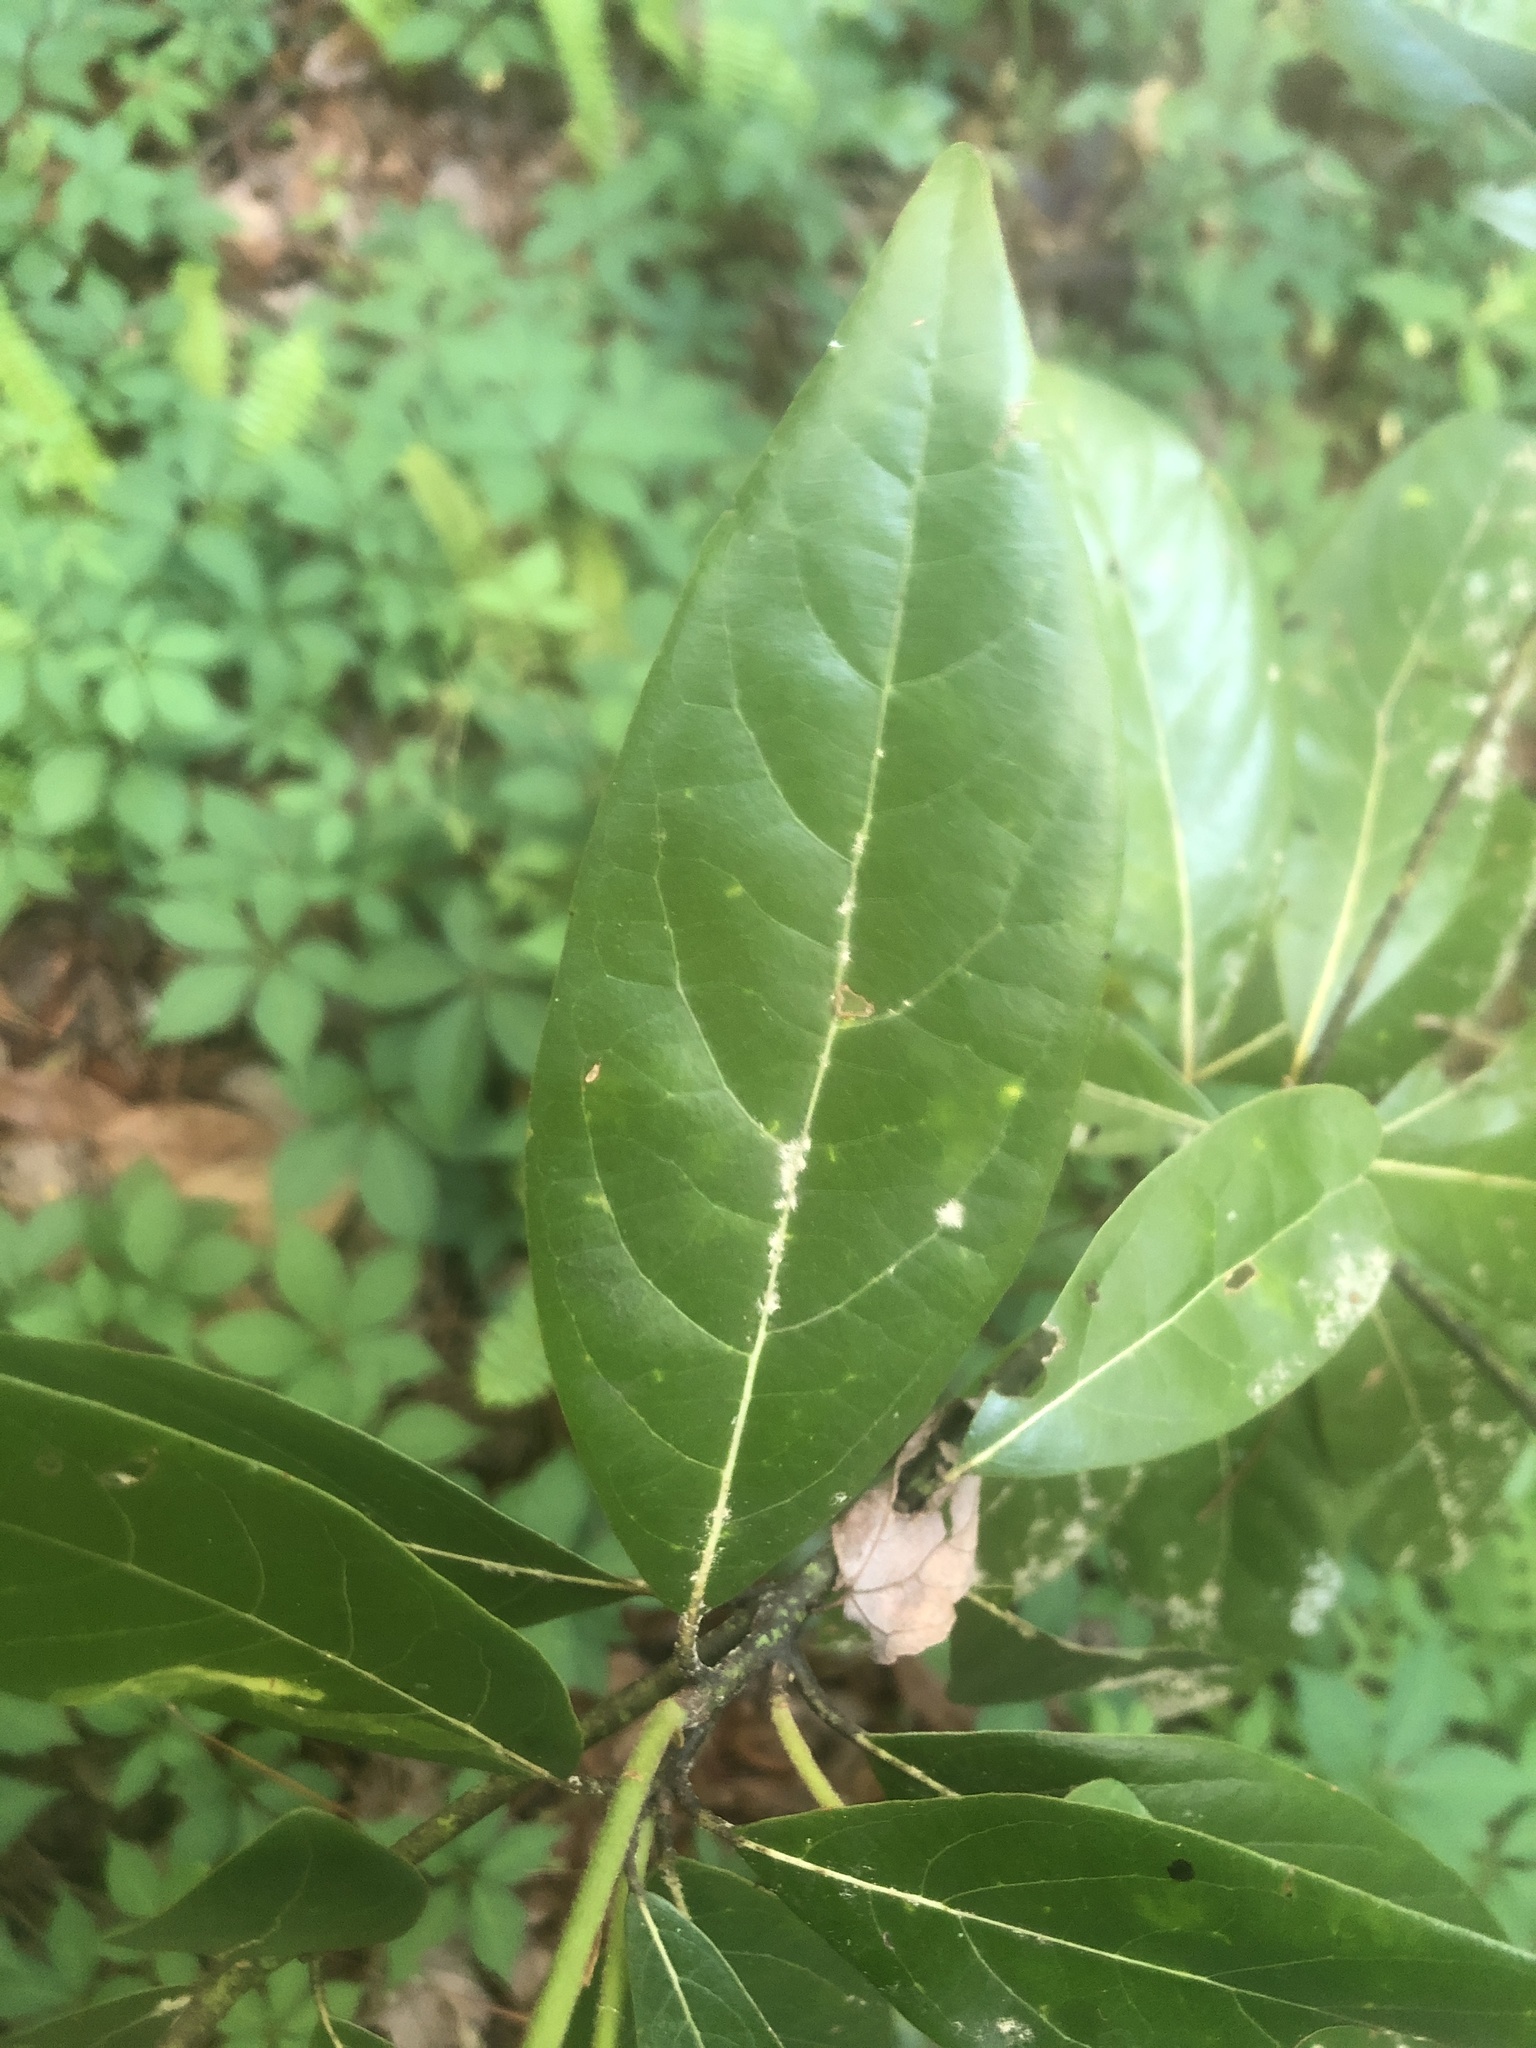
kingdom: Plantae
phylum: Tracheophyta
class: Magnoliopsida
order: Laurales
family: Lauraceae
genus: Persea
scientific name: Persea borbonia
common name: Redbay
